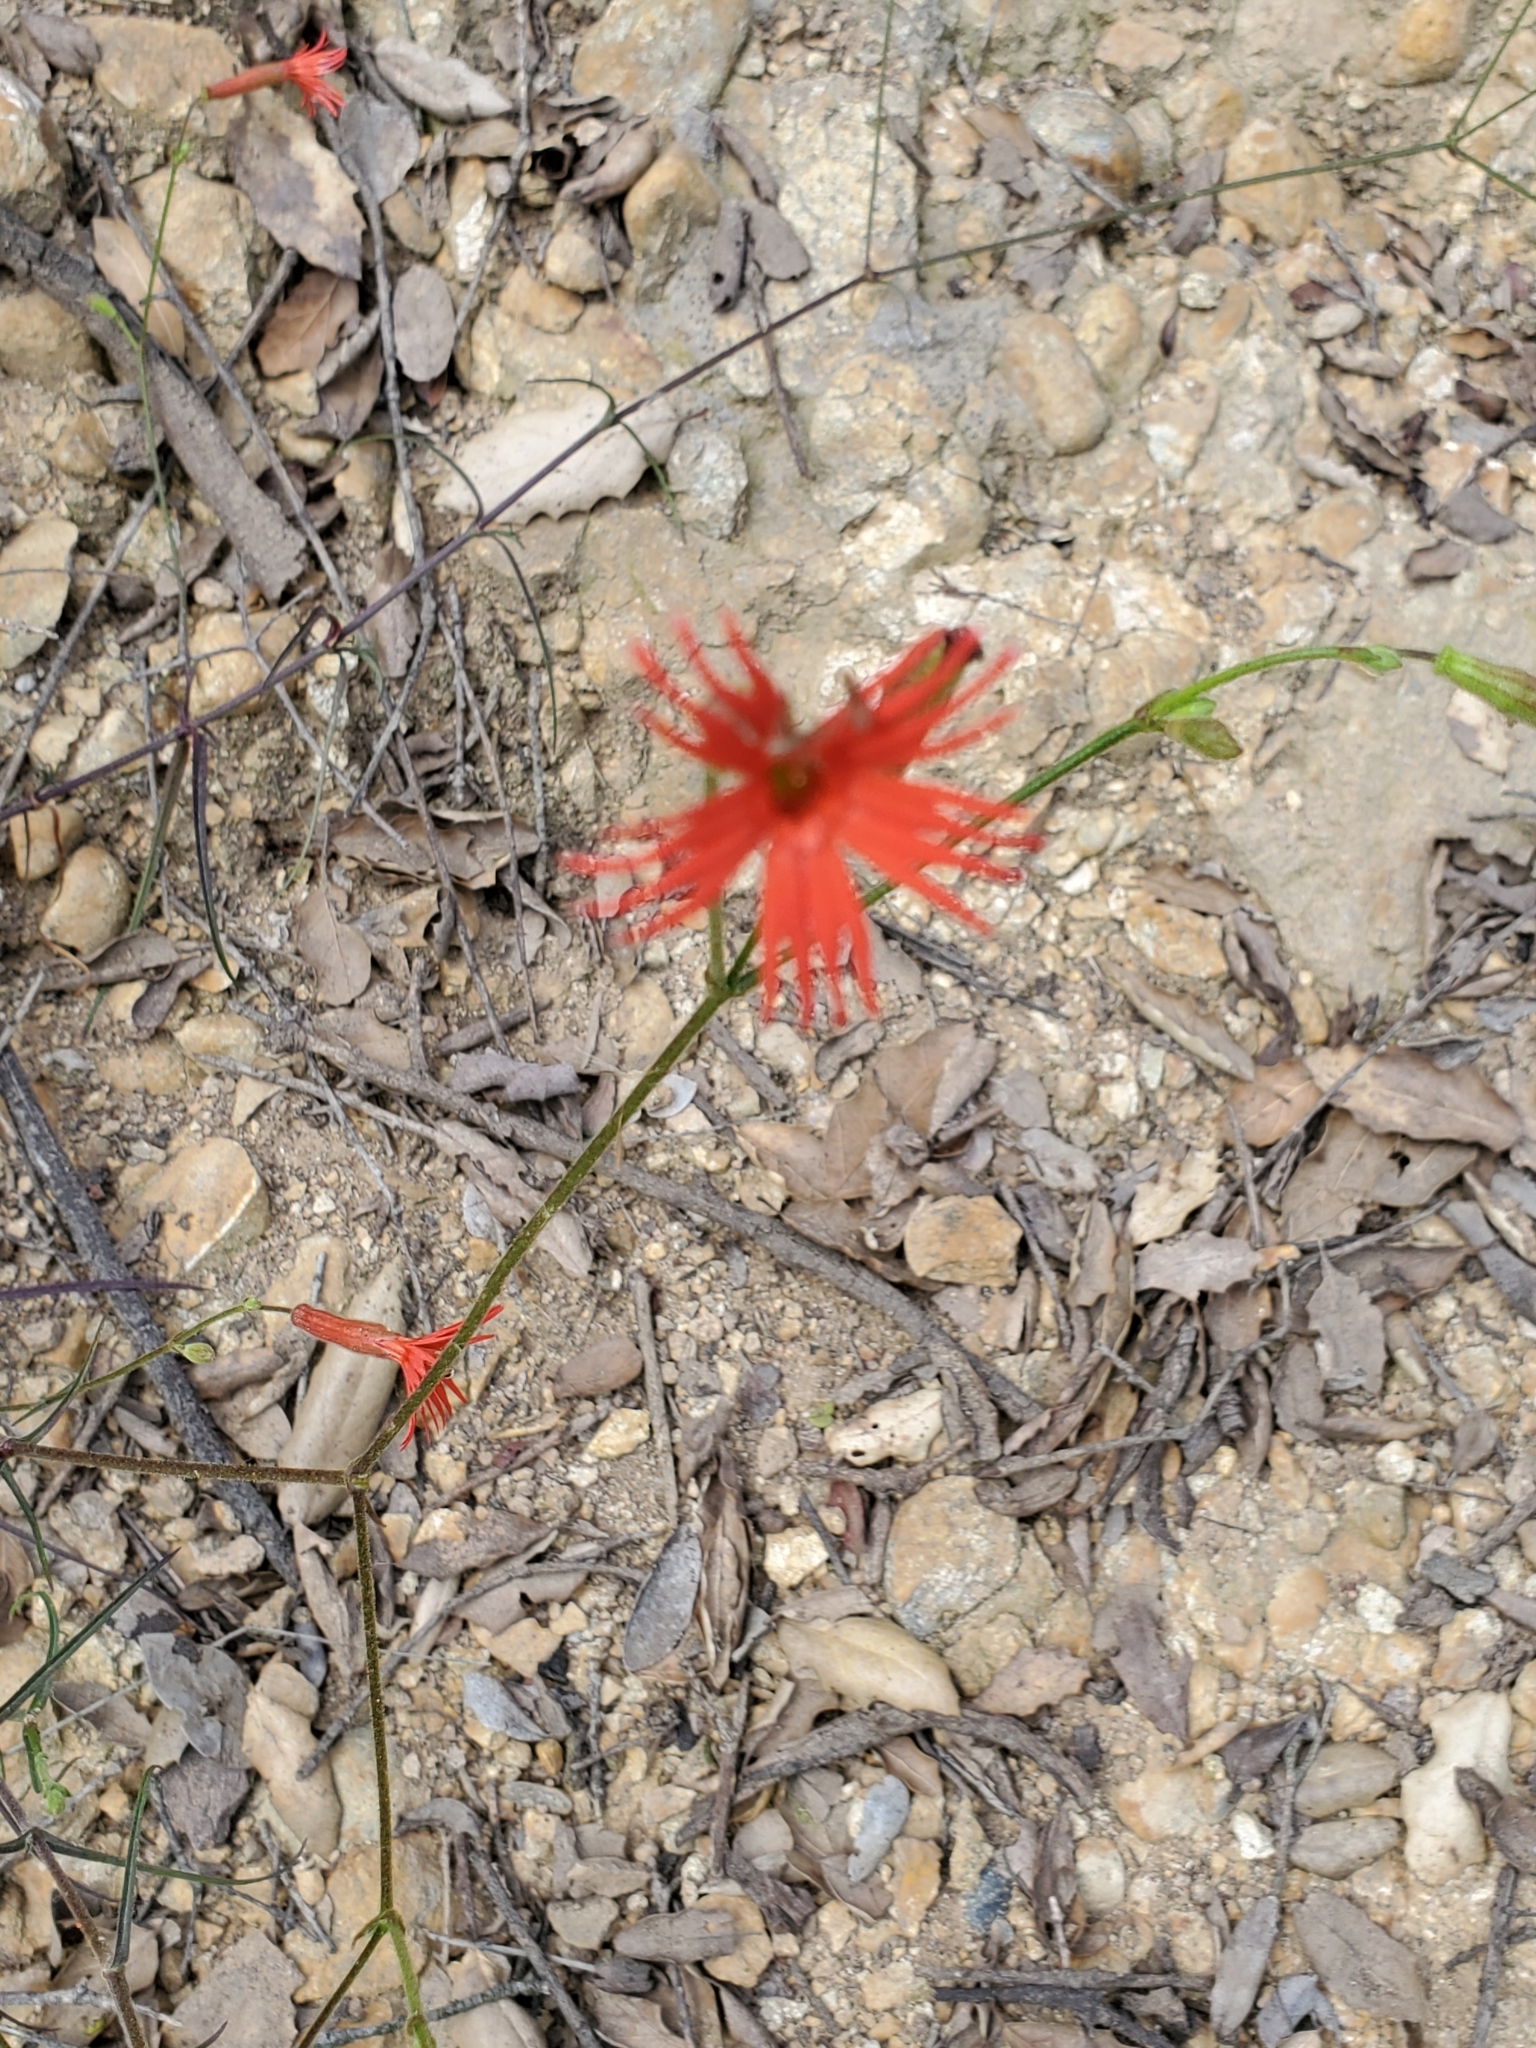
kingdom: Plantae
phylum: Tracheophyta
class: Magnoliopsida
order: Caryophyllales
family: Caryophyllaceae
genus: Silene
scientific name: Silene laciniata
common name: Indian-pink
